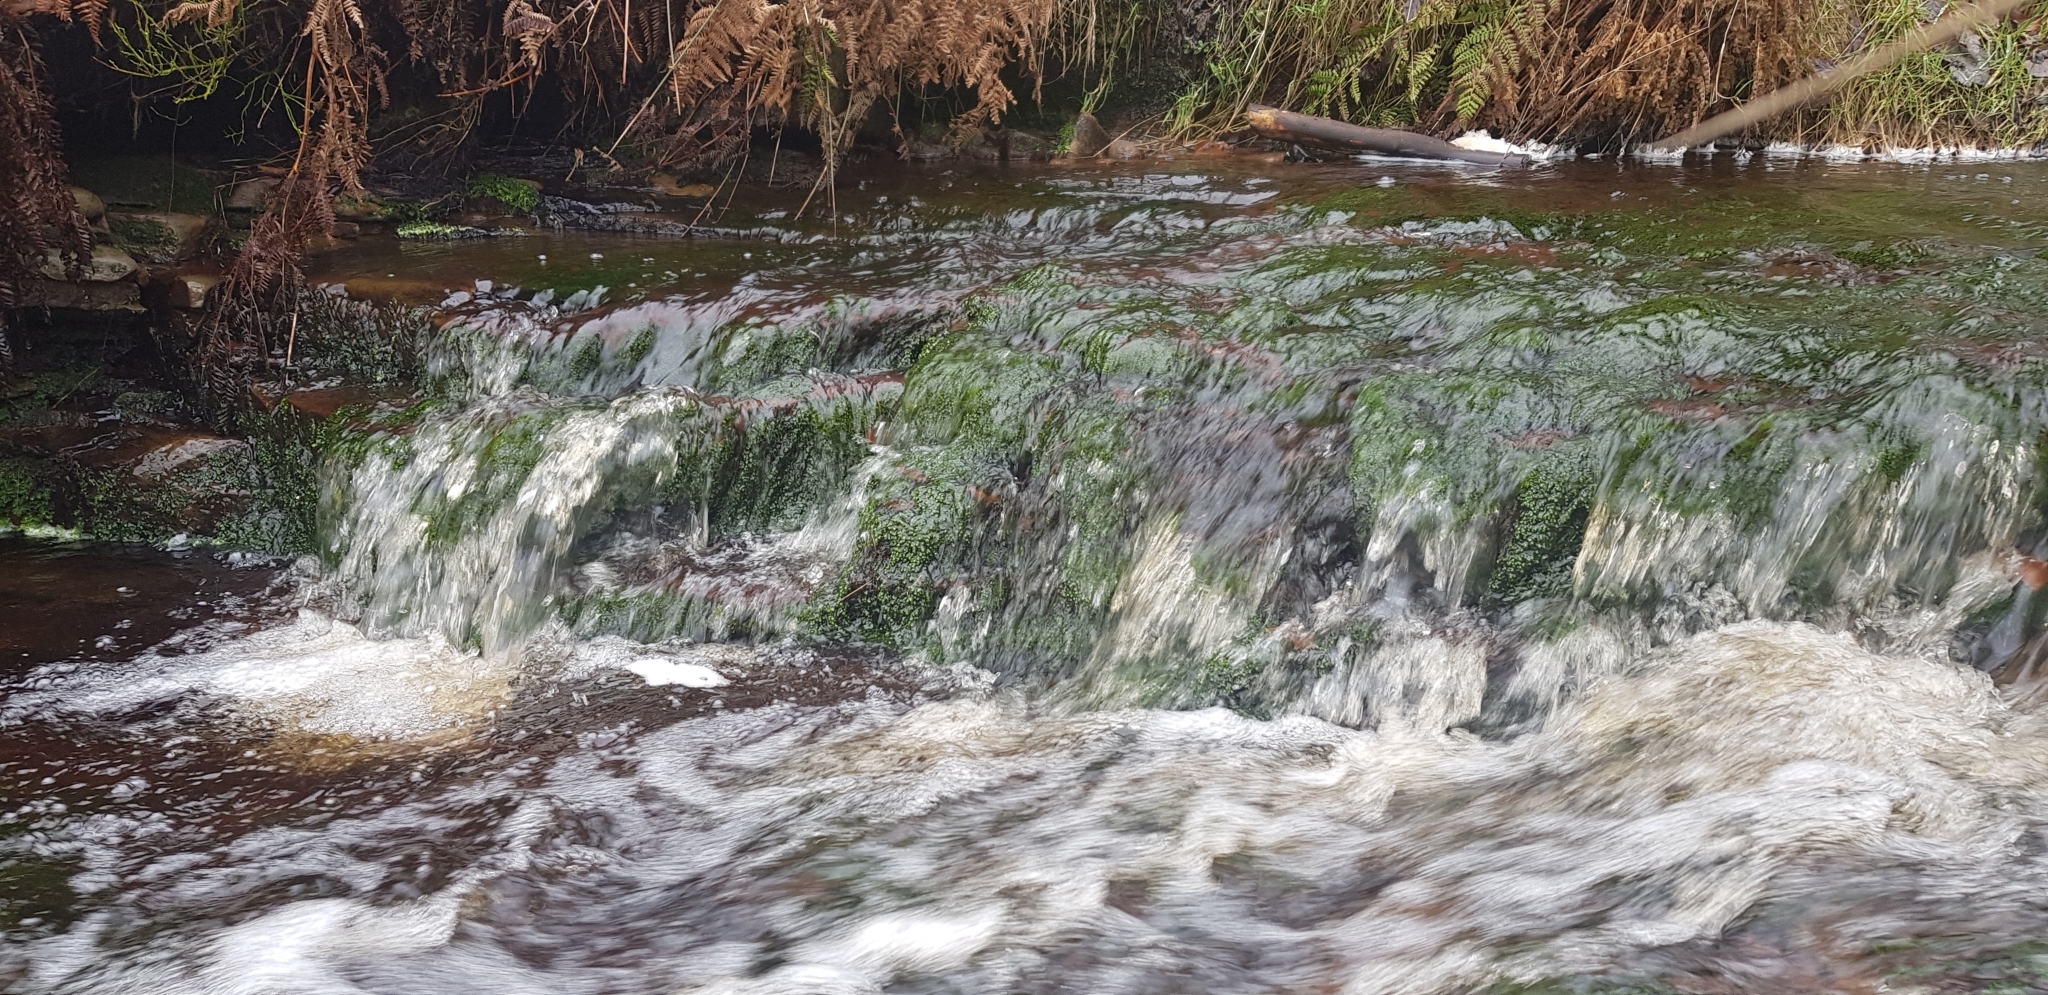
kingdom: Plantae
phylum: Marchantiophyta
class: Jungermanniopsida
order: Jungermanniales
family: Scapaniaceae
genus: Scapania
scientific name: Scapania undulata
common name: Water earwort
